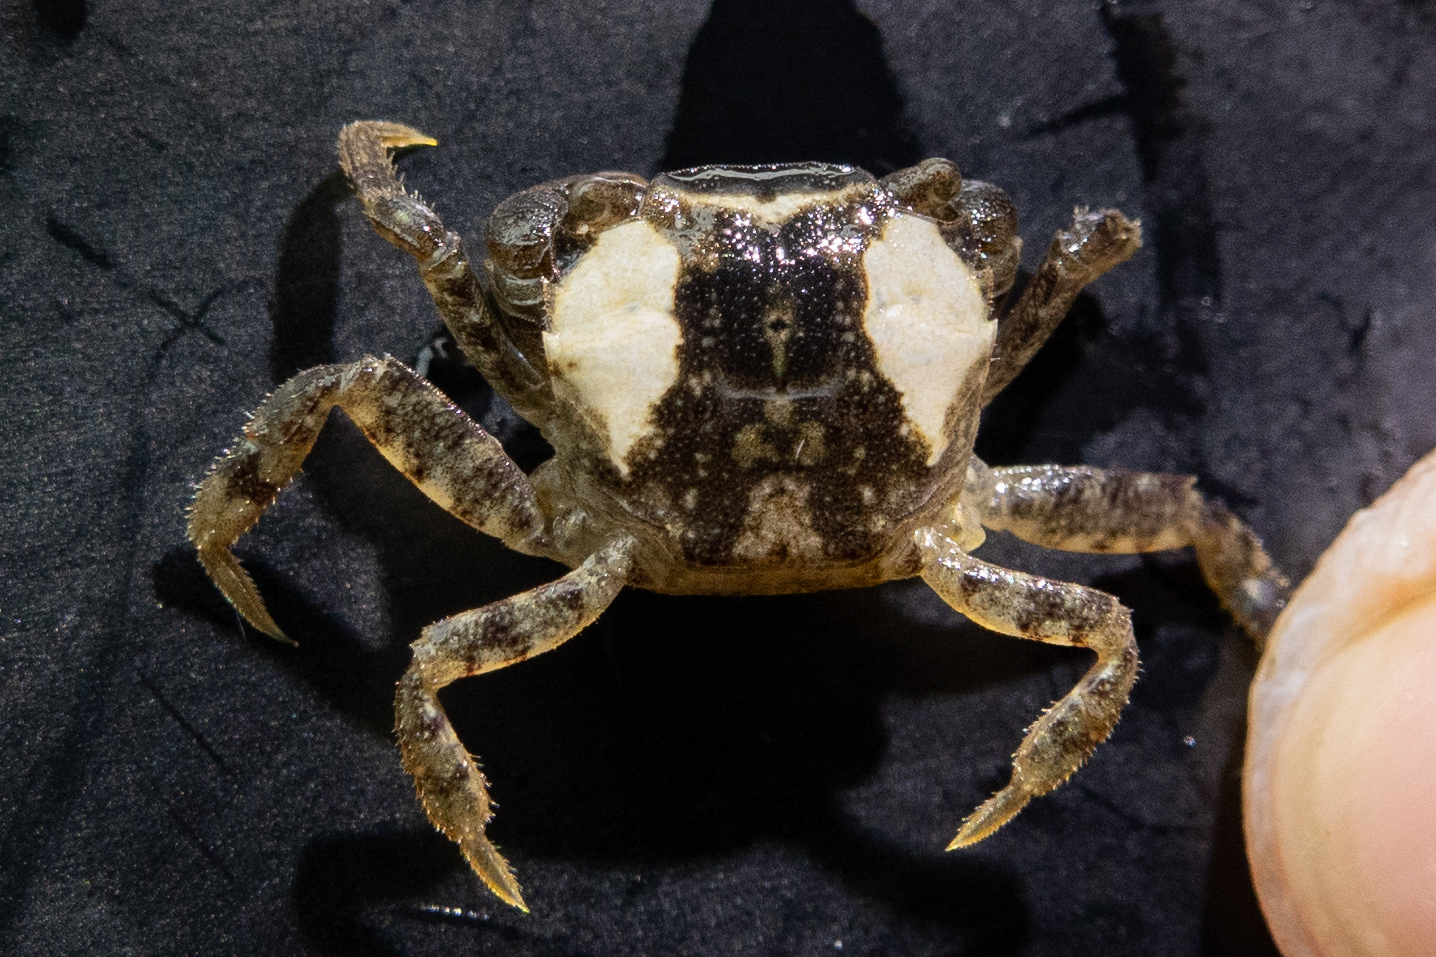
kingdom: Animalia
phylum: Arthropoda
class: Malacostraca
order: Decapoda
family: Varunidae
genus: Hemigrapsus
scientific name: Hemigrapsus takanoi
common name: Asian brush crab
